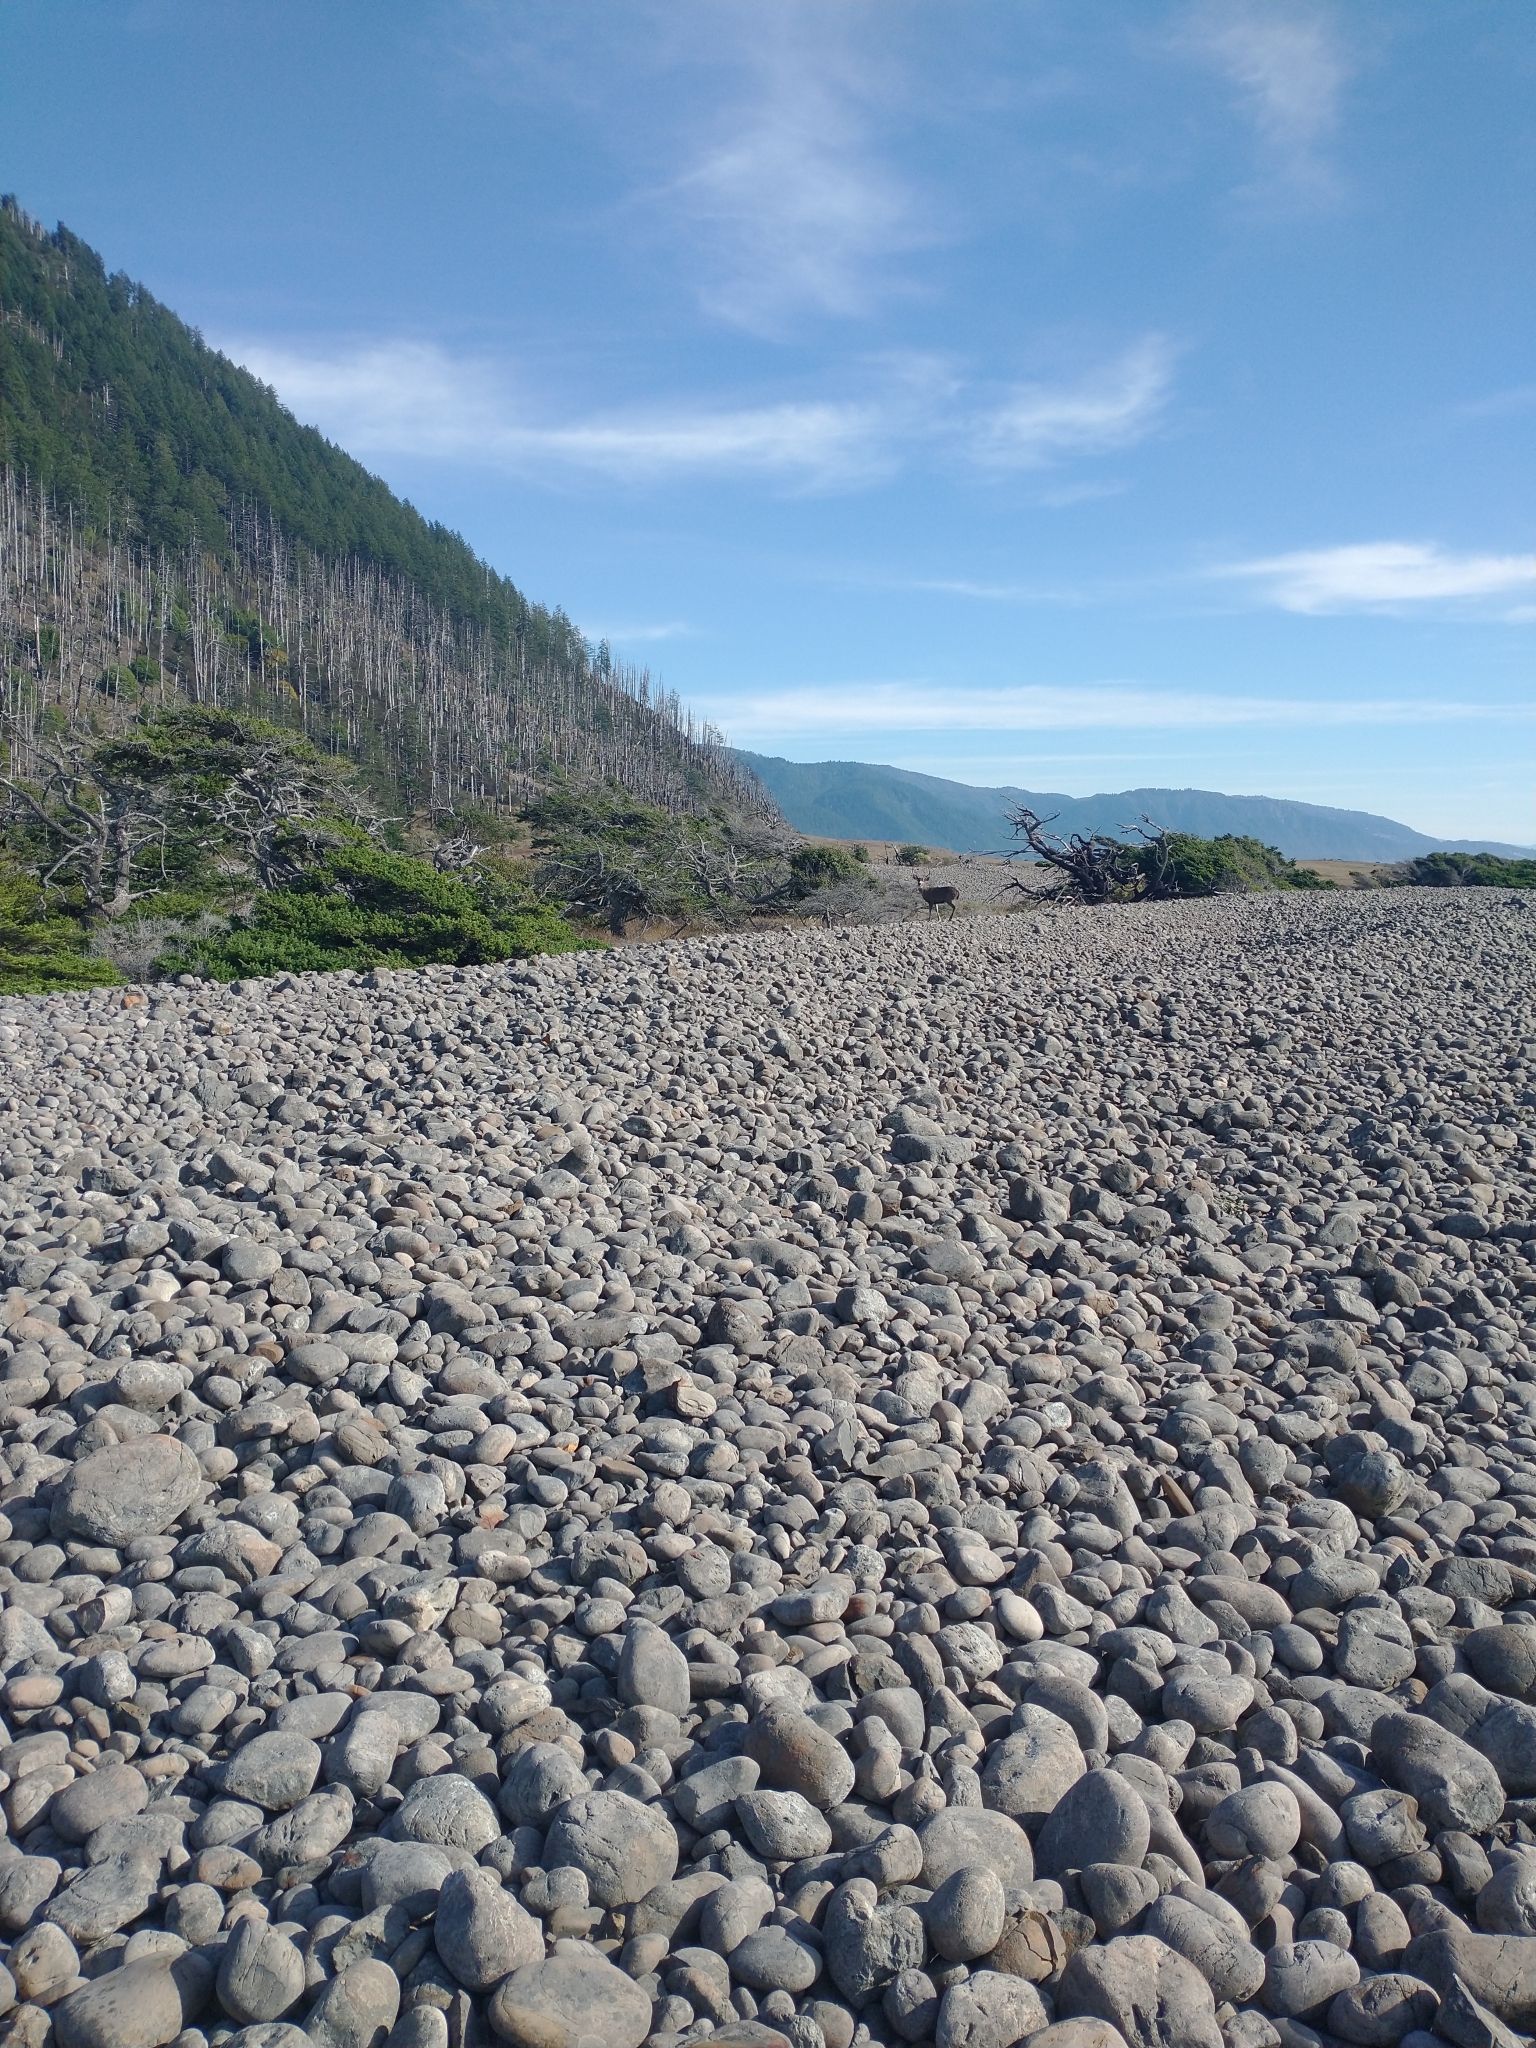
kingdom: Animalia
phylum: Chordata
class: Mammalia
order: Artiodactyla
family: Cervidae
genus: Odocoileus
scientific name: Odocoileus hemionus
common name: Mule deer
